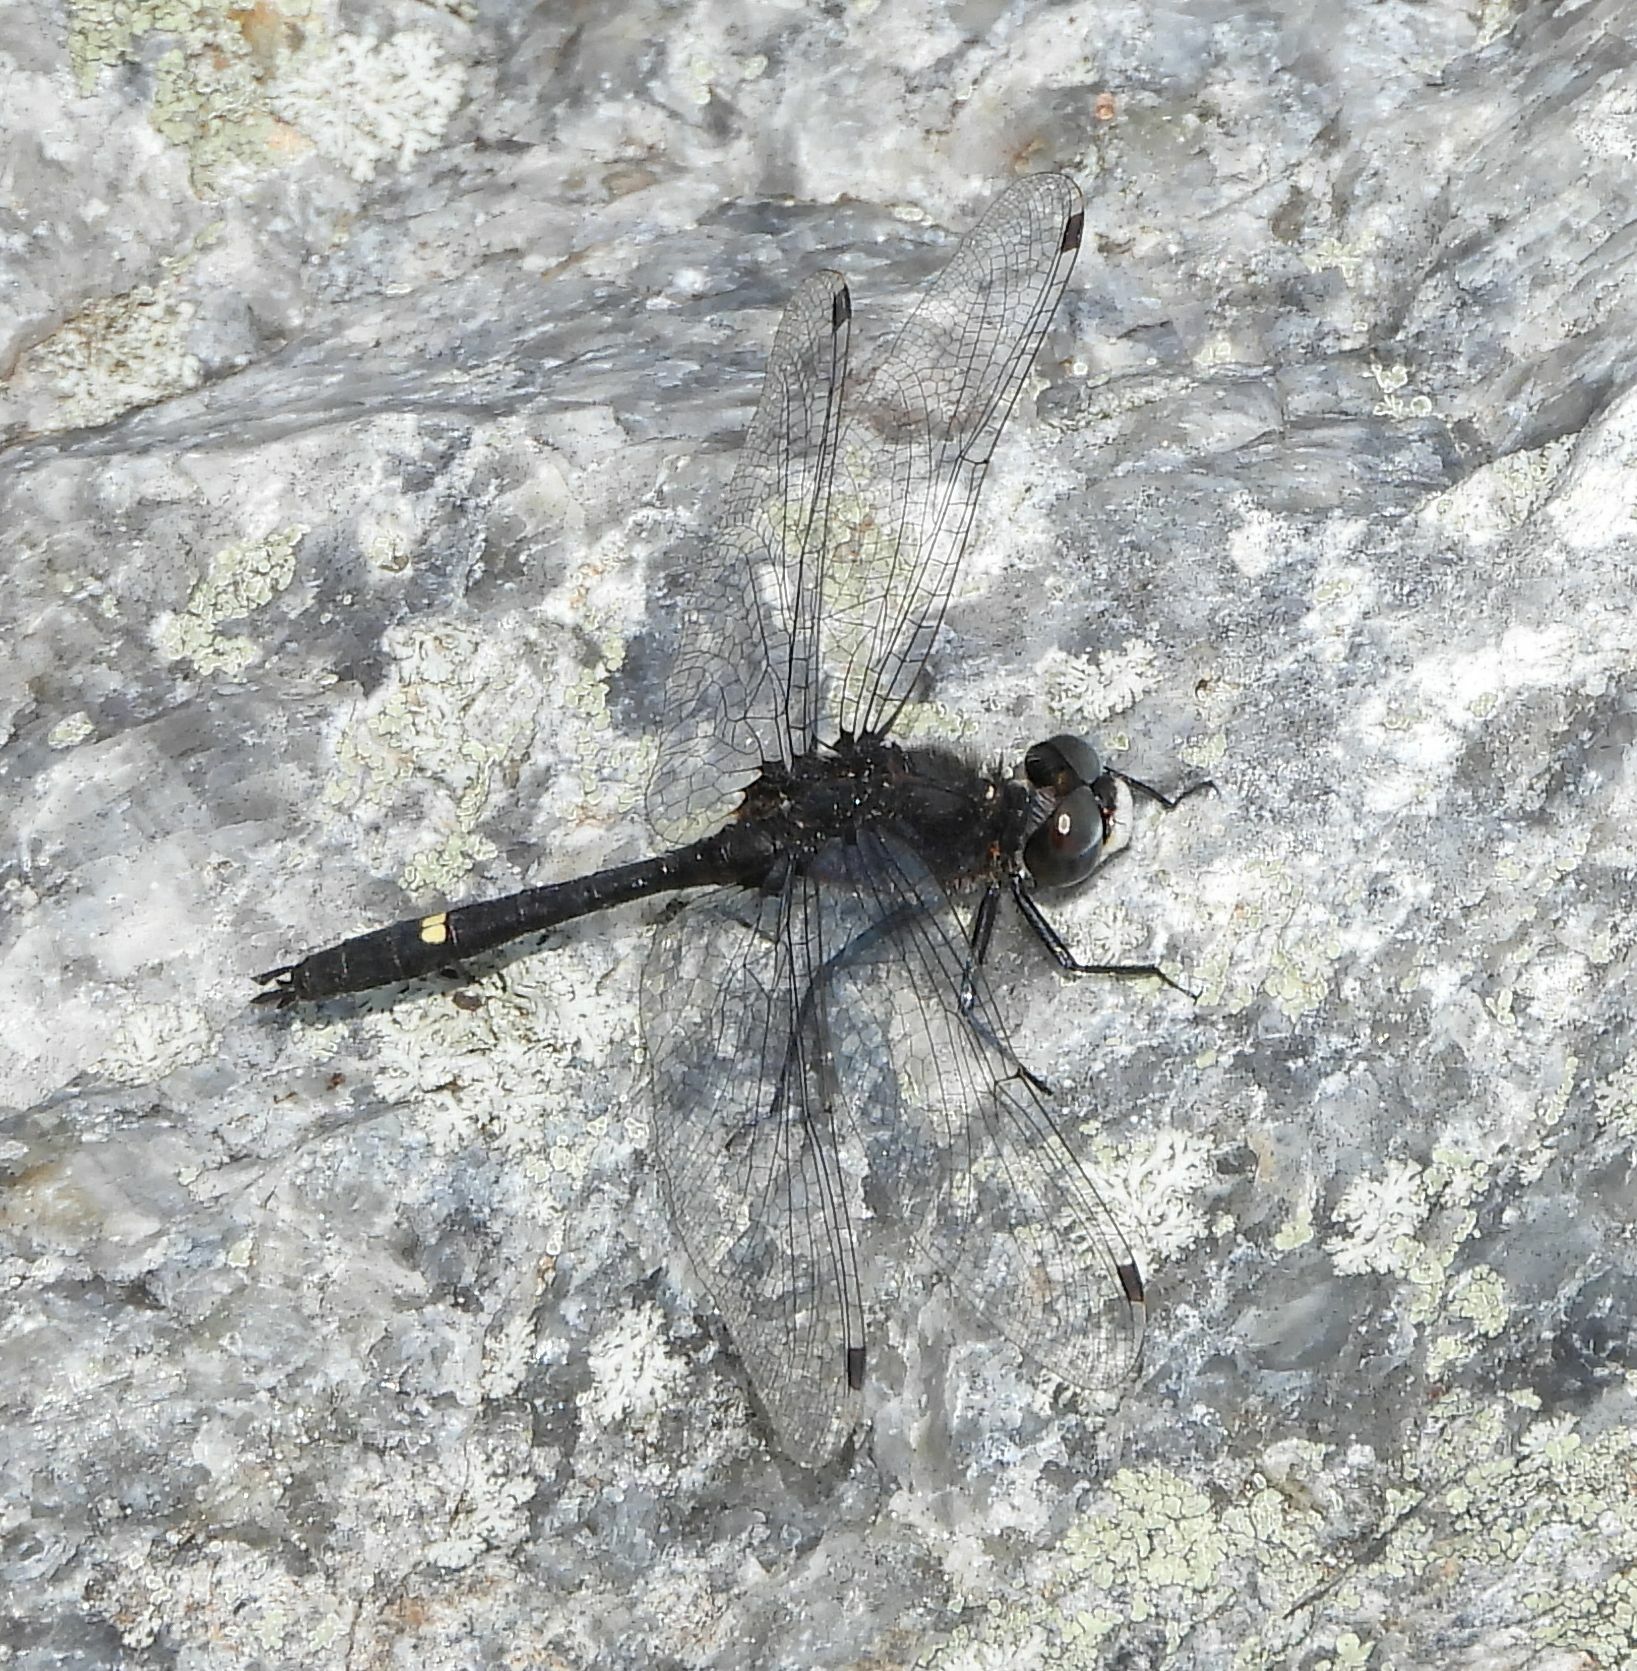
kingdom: Animalia
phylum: Arthropoda
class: Insecta
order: Odonata
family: Libellulidae
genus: Leucorrhinia
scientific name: Leucorrhinia intacta
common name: Dot-tailed whiteface
